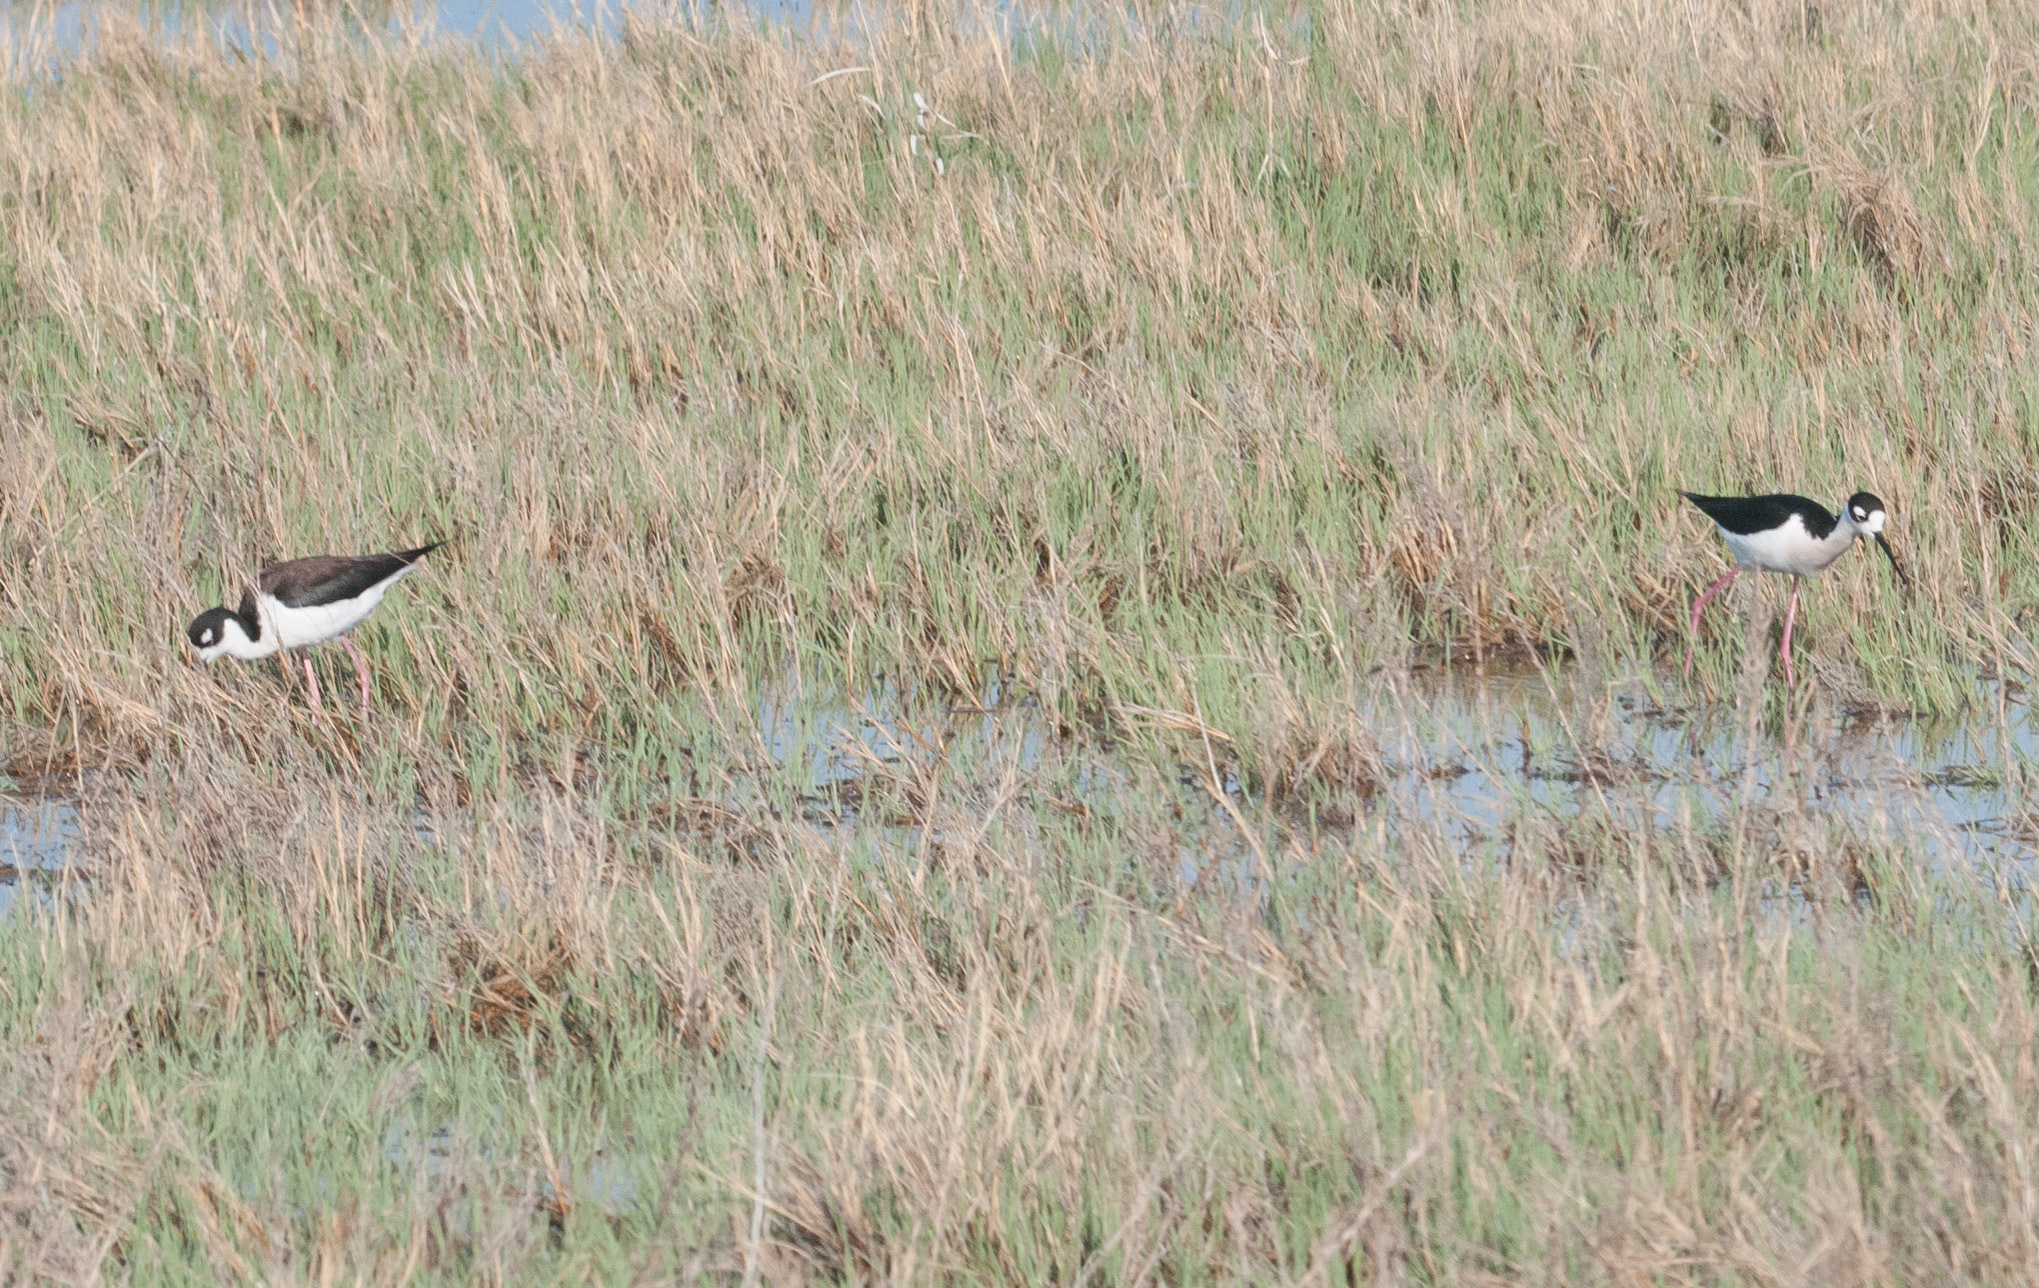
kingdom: Animalia
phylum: Chordata
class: Aves
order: Charadriiformes
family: Recurvirostridae
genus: Himantopus
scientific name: Himantopus mexicanus
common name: Black-necked stilt
